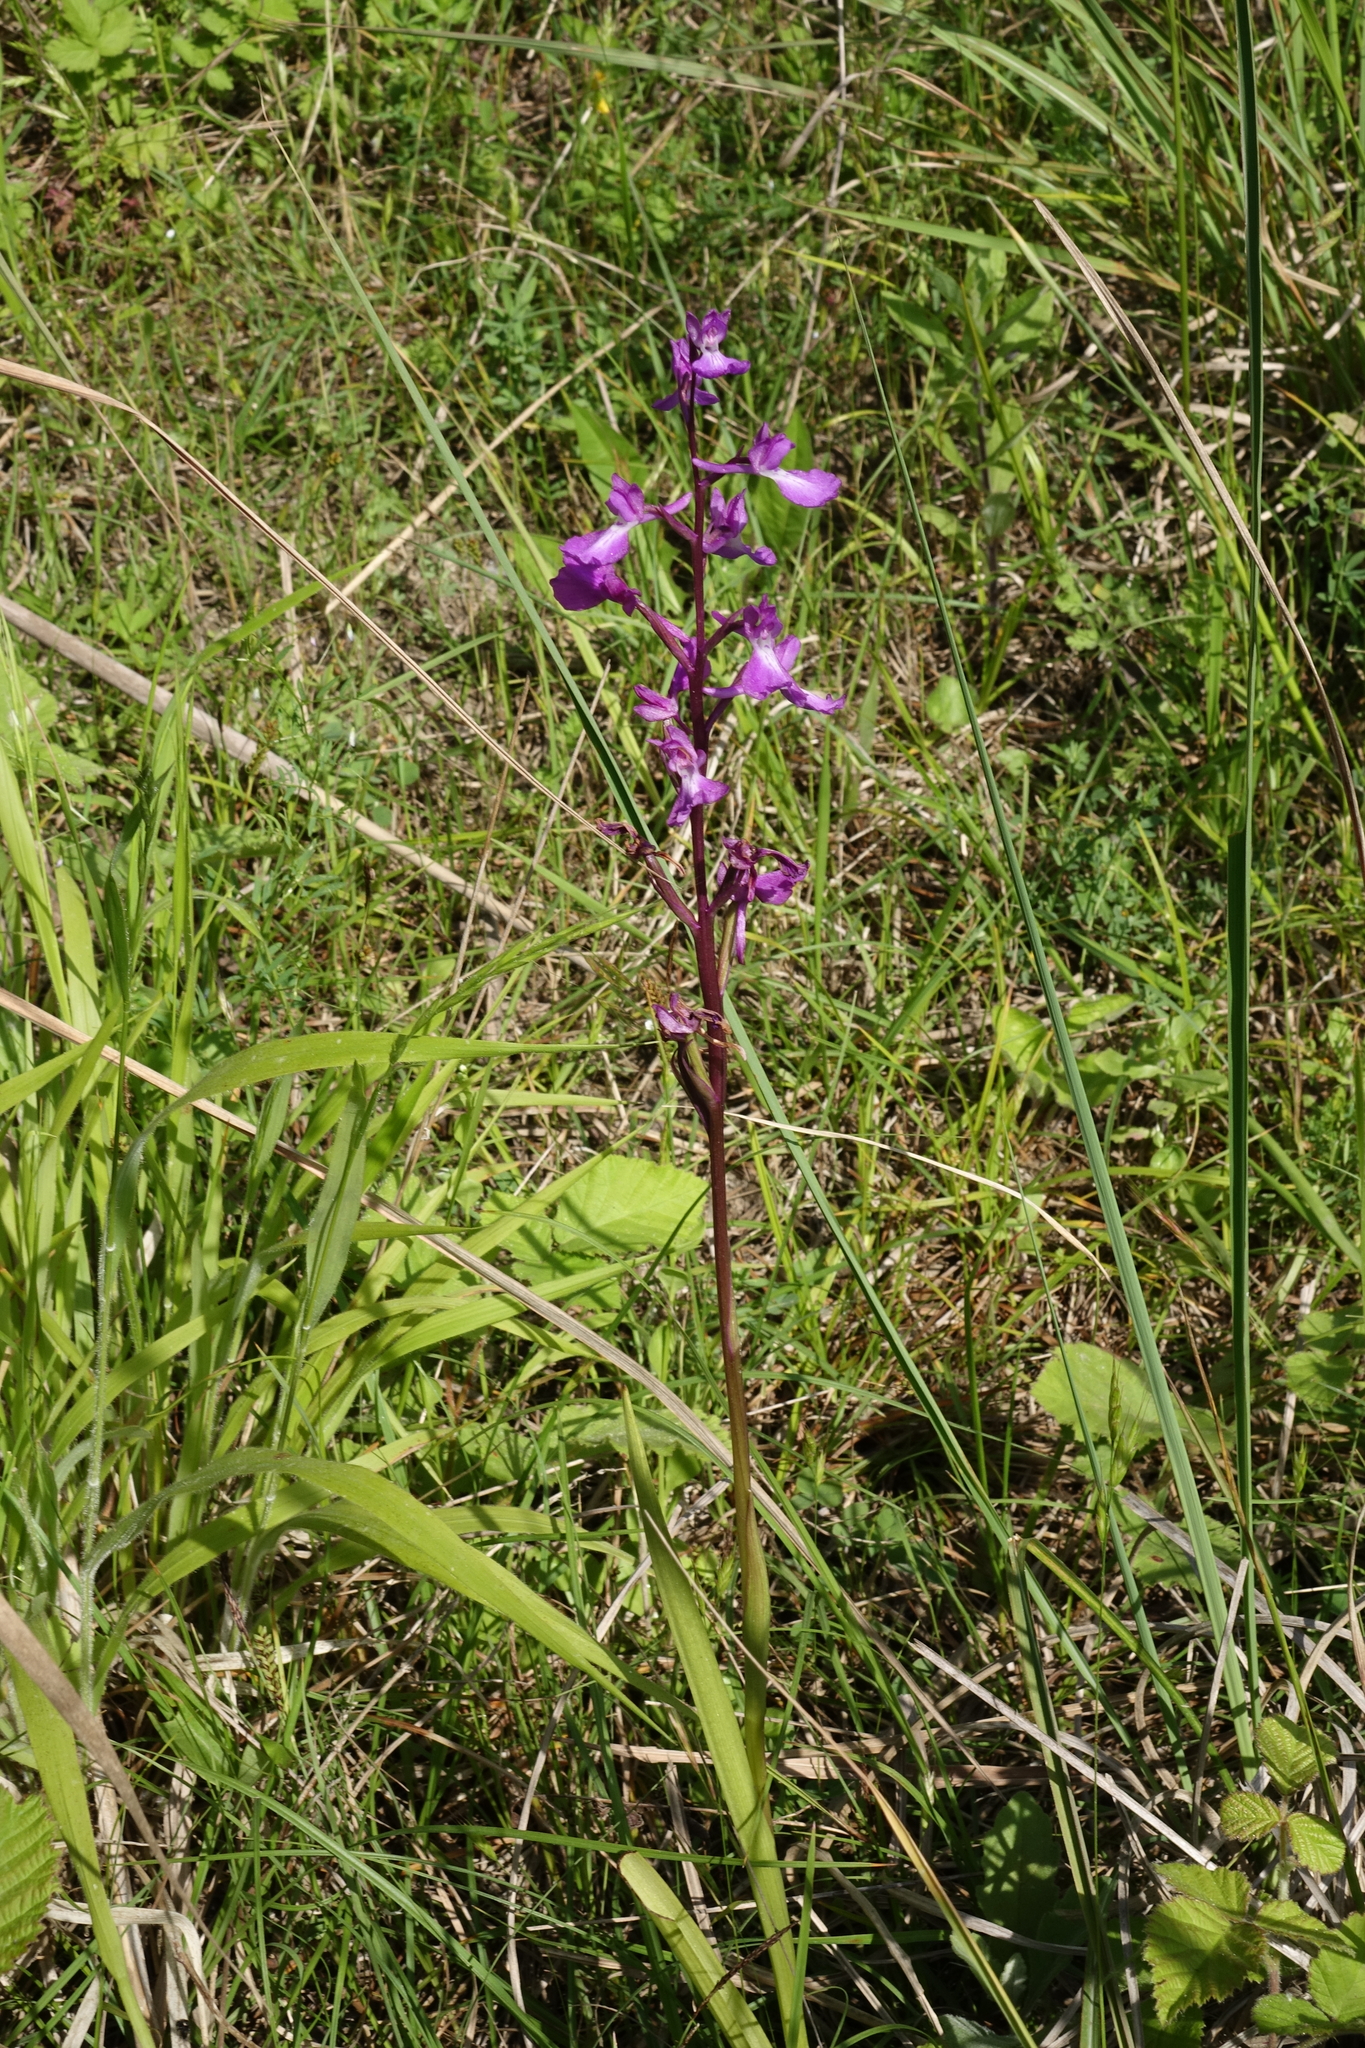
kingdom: Plantae
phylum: Tracheophyta
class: Liliopsida
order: Asparagales
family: Orchidaceae
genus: Anacamptis
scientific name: Anacamptis palustris
